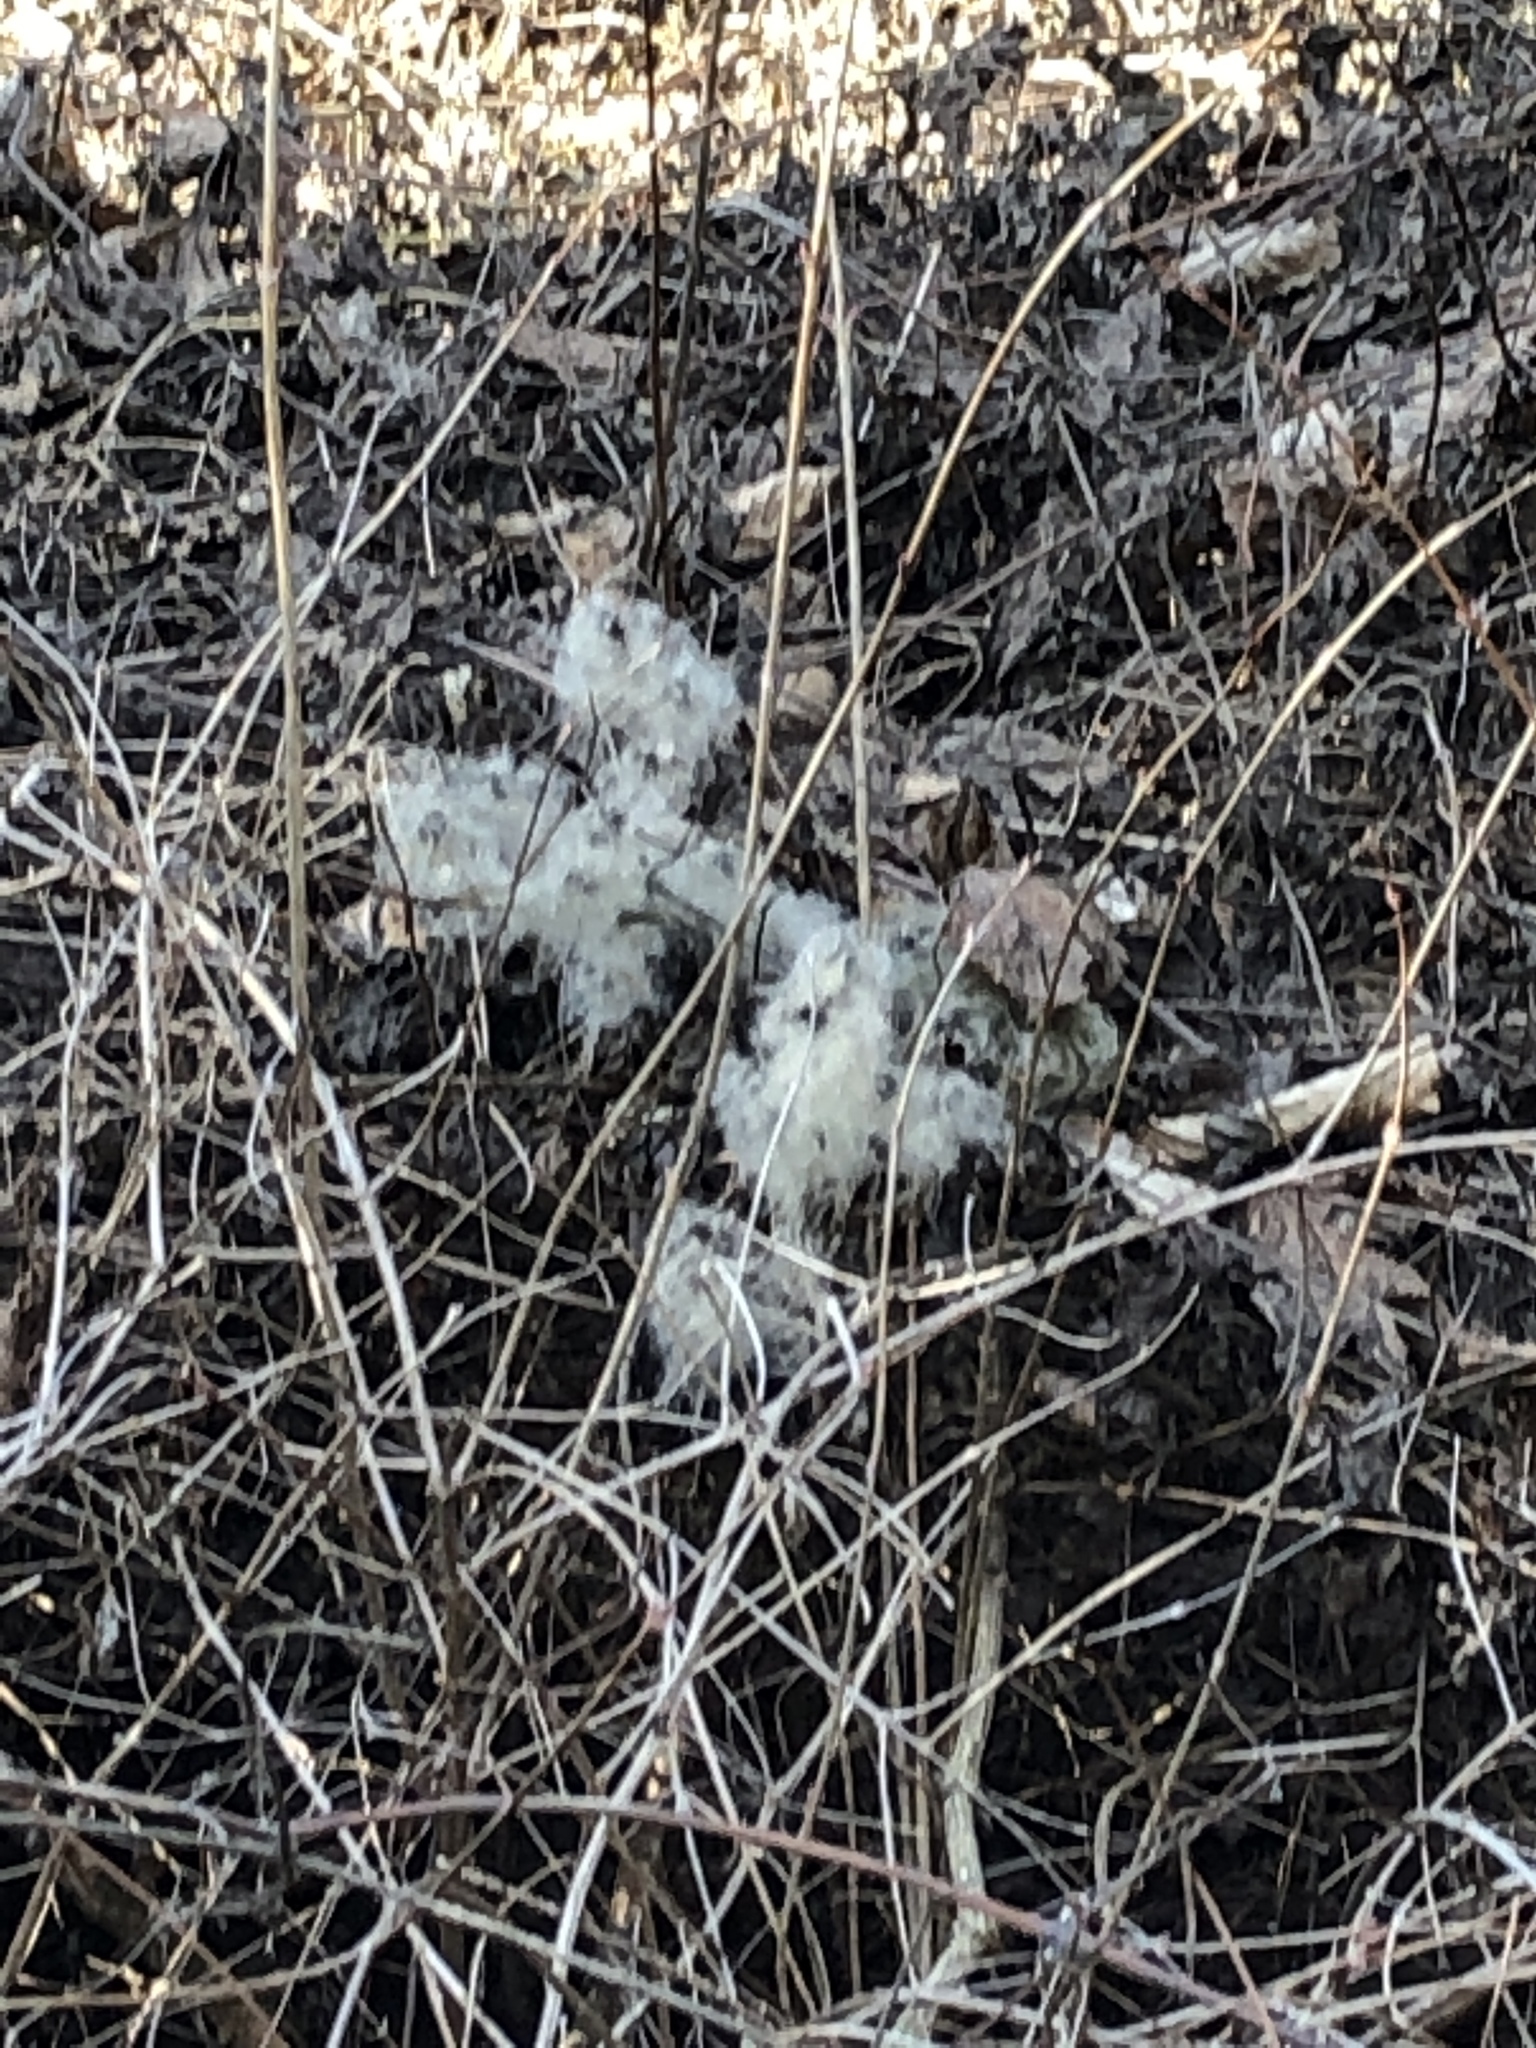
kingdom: Plantae
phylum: Tracheophyta
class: Magnoliopsida
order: Ranunculales
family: Ranunculaceae
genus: Clematis
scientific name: Clematis vitalba
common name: Evergreen clematis
